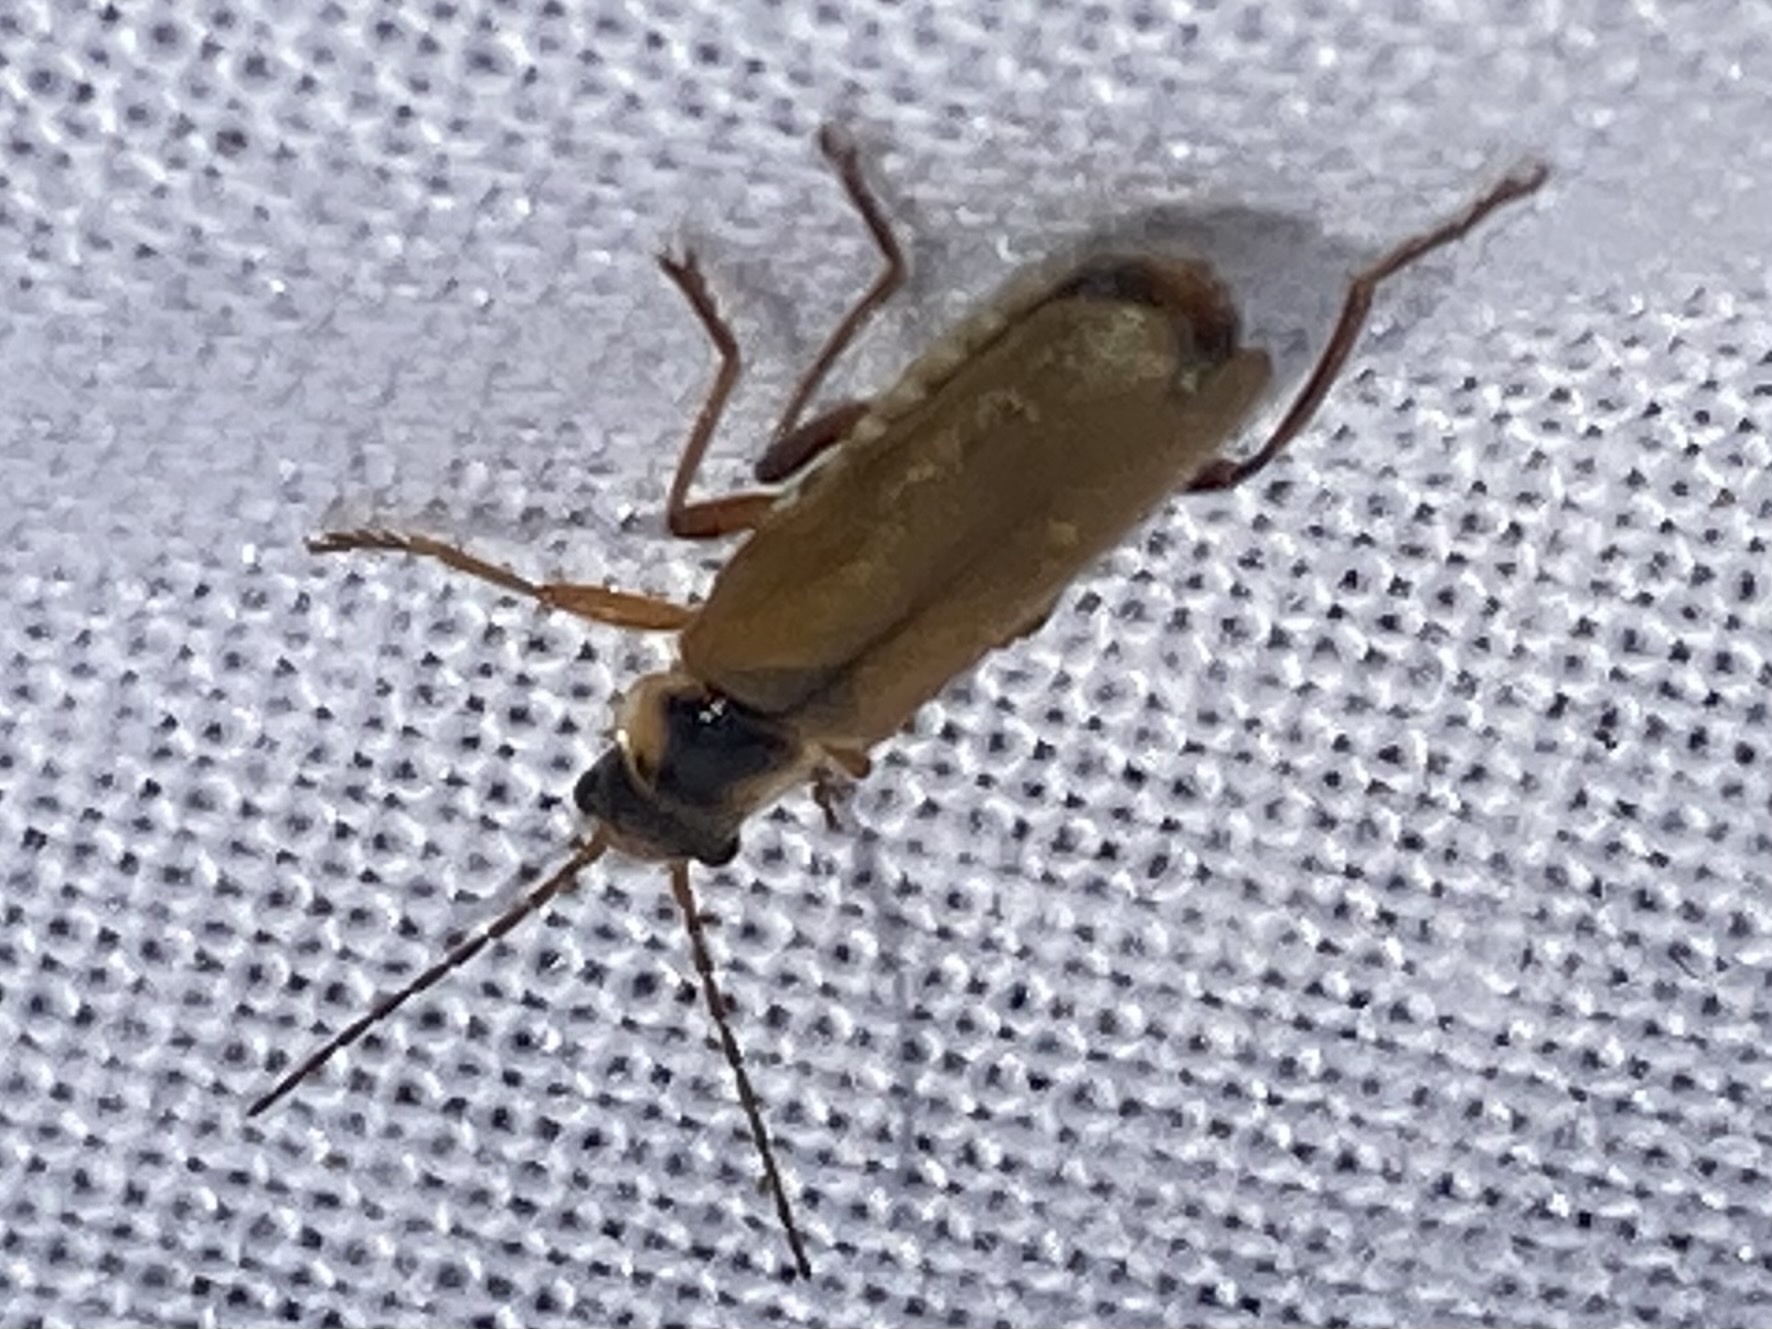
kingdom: Animalia
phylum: Arthropoda
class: Insecta
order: Coleoptera
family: Cantharidae
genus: Cantharis
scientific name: Cantharis decipiens
